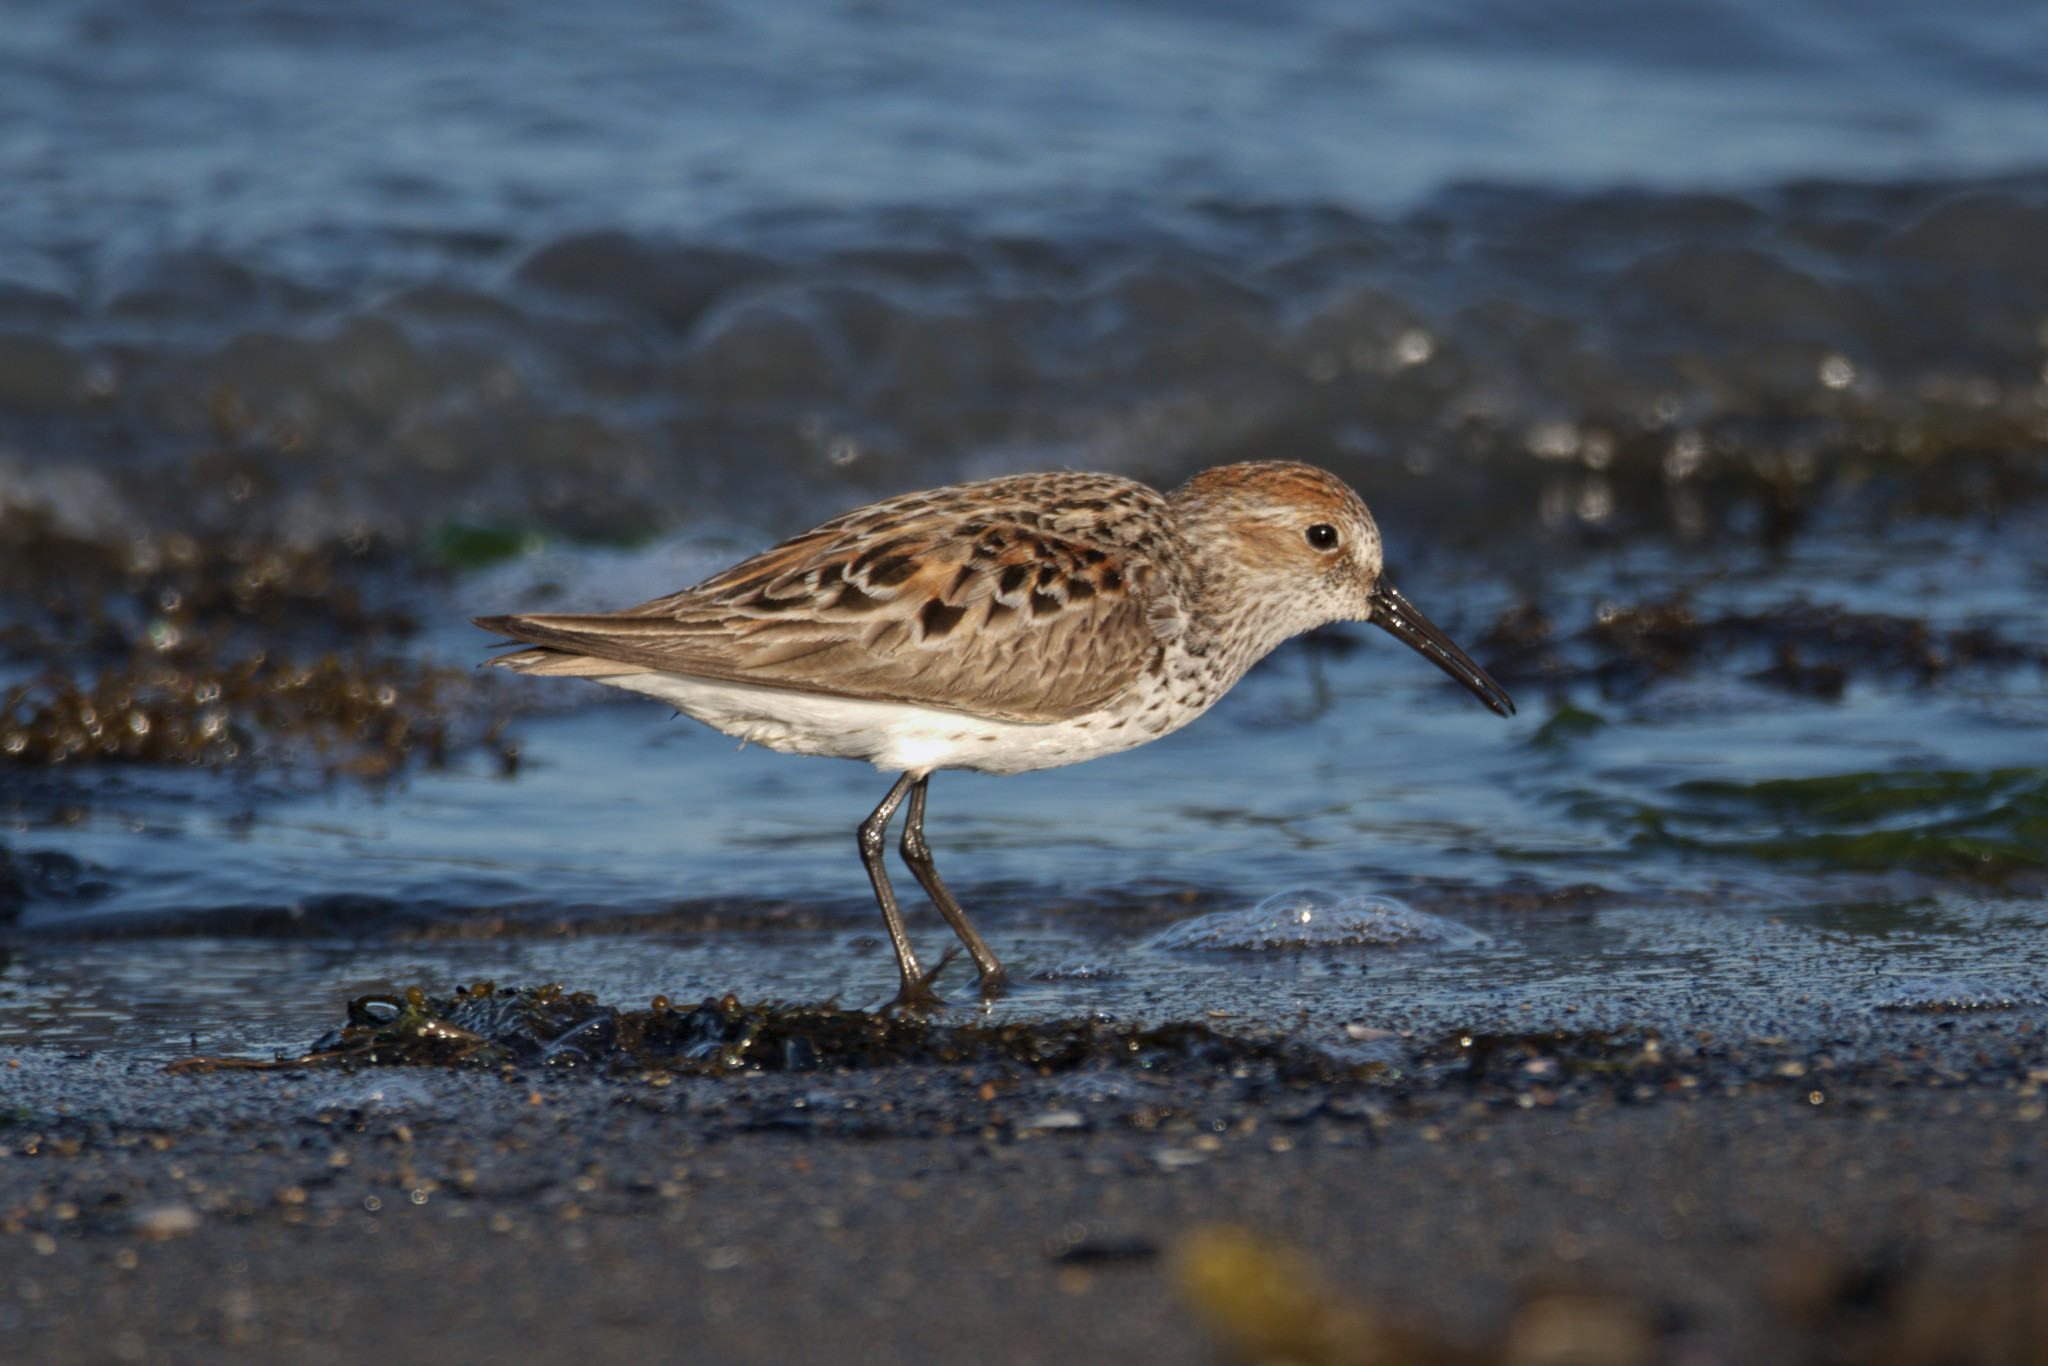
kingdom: Animalia
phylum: Chordata
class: Aves
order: Charadriiformes
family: Scolopacidae
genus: Calidris
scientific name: Calidris mauri
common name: Western sandpiper
